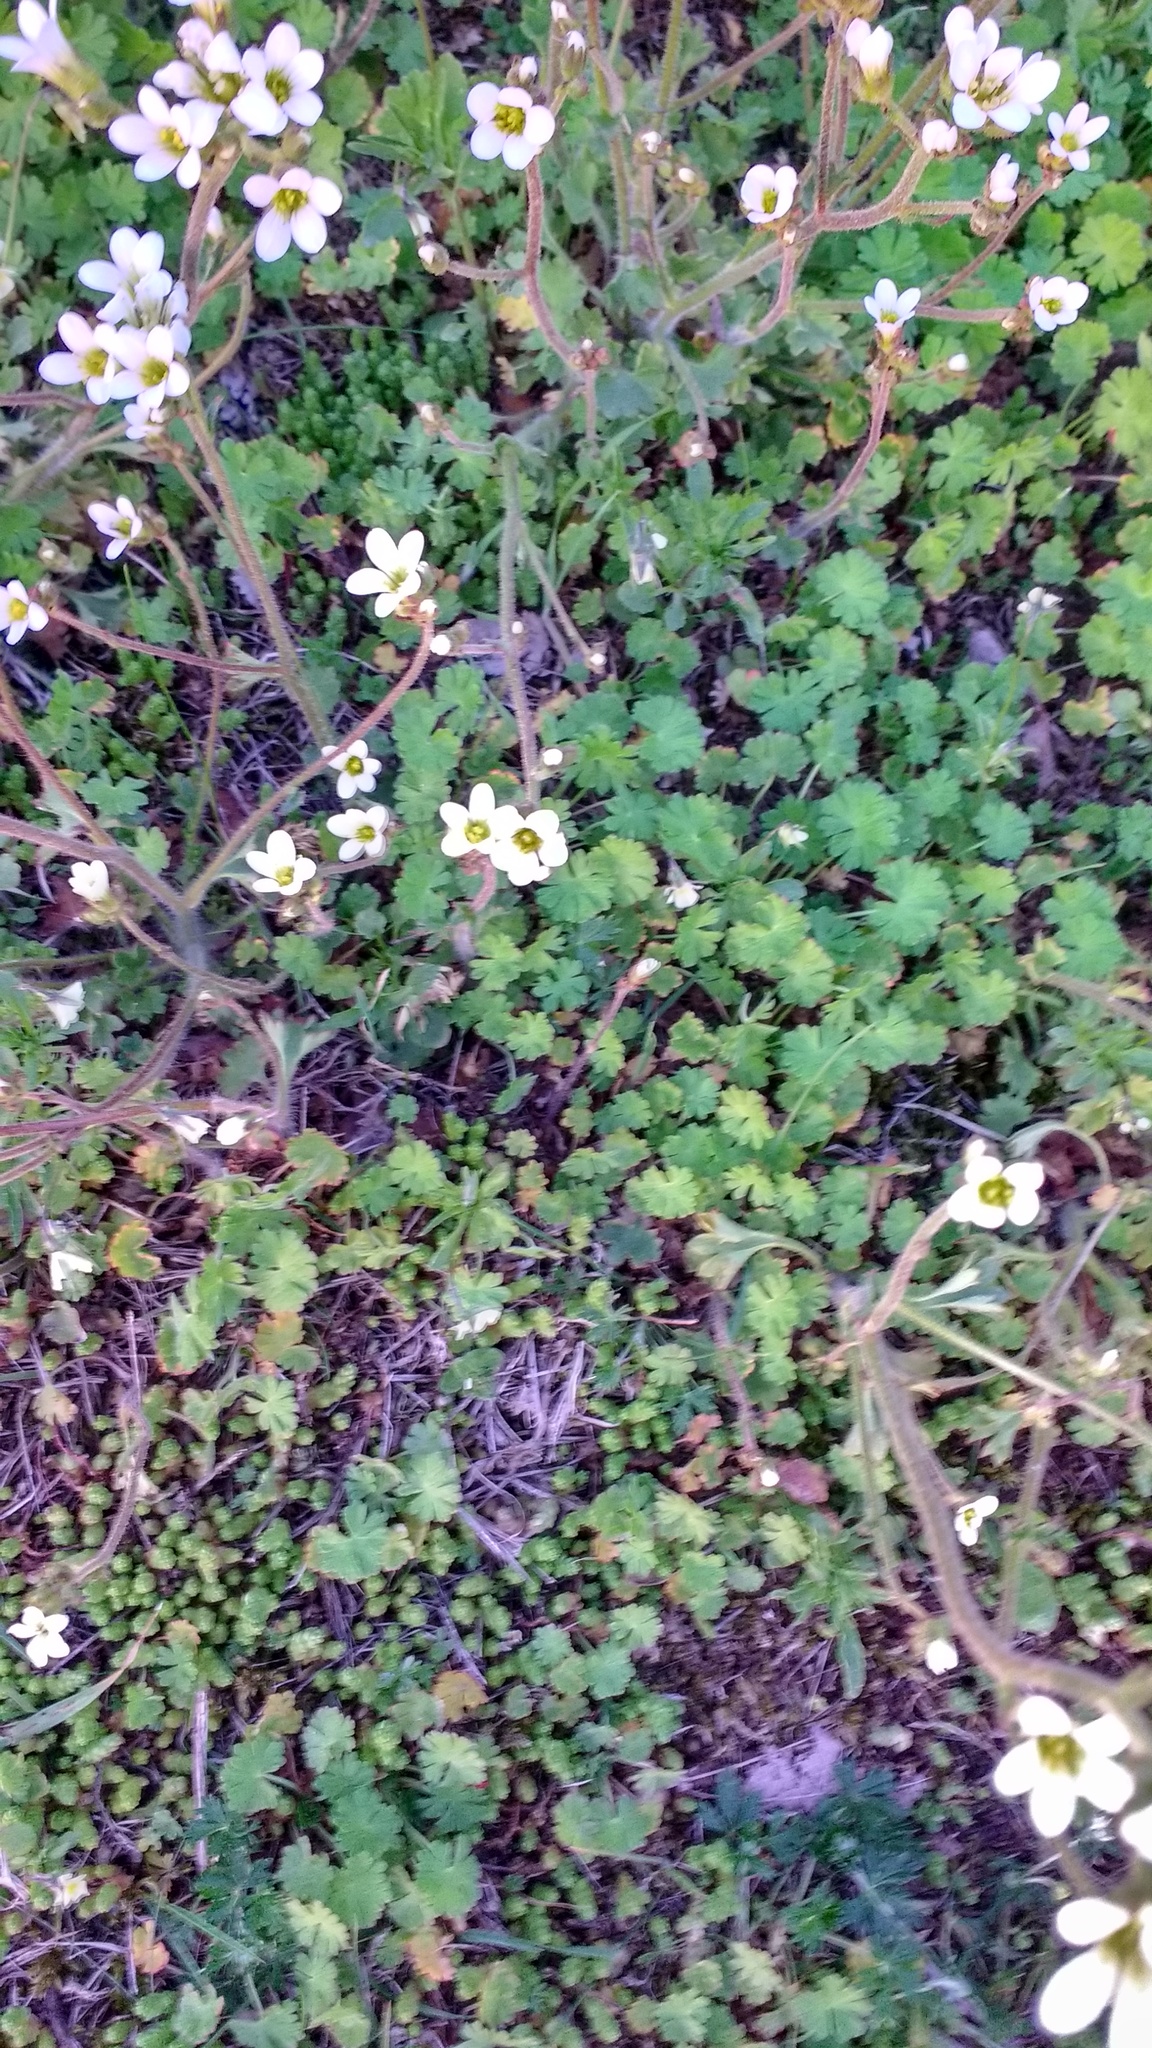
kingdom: Plantae
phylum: Tracheophyta
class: Magnoliopsida
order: Saxifragales
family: Saxifragaceae
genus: Saxifraga
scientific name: Saxifraga granulata
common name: Meadow saxifrage
